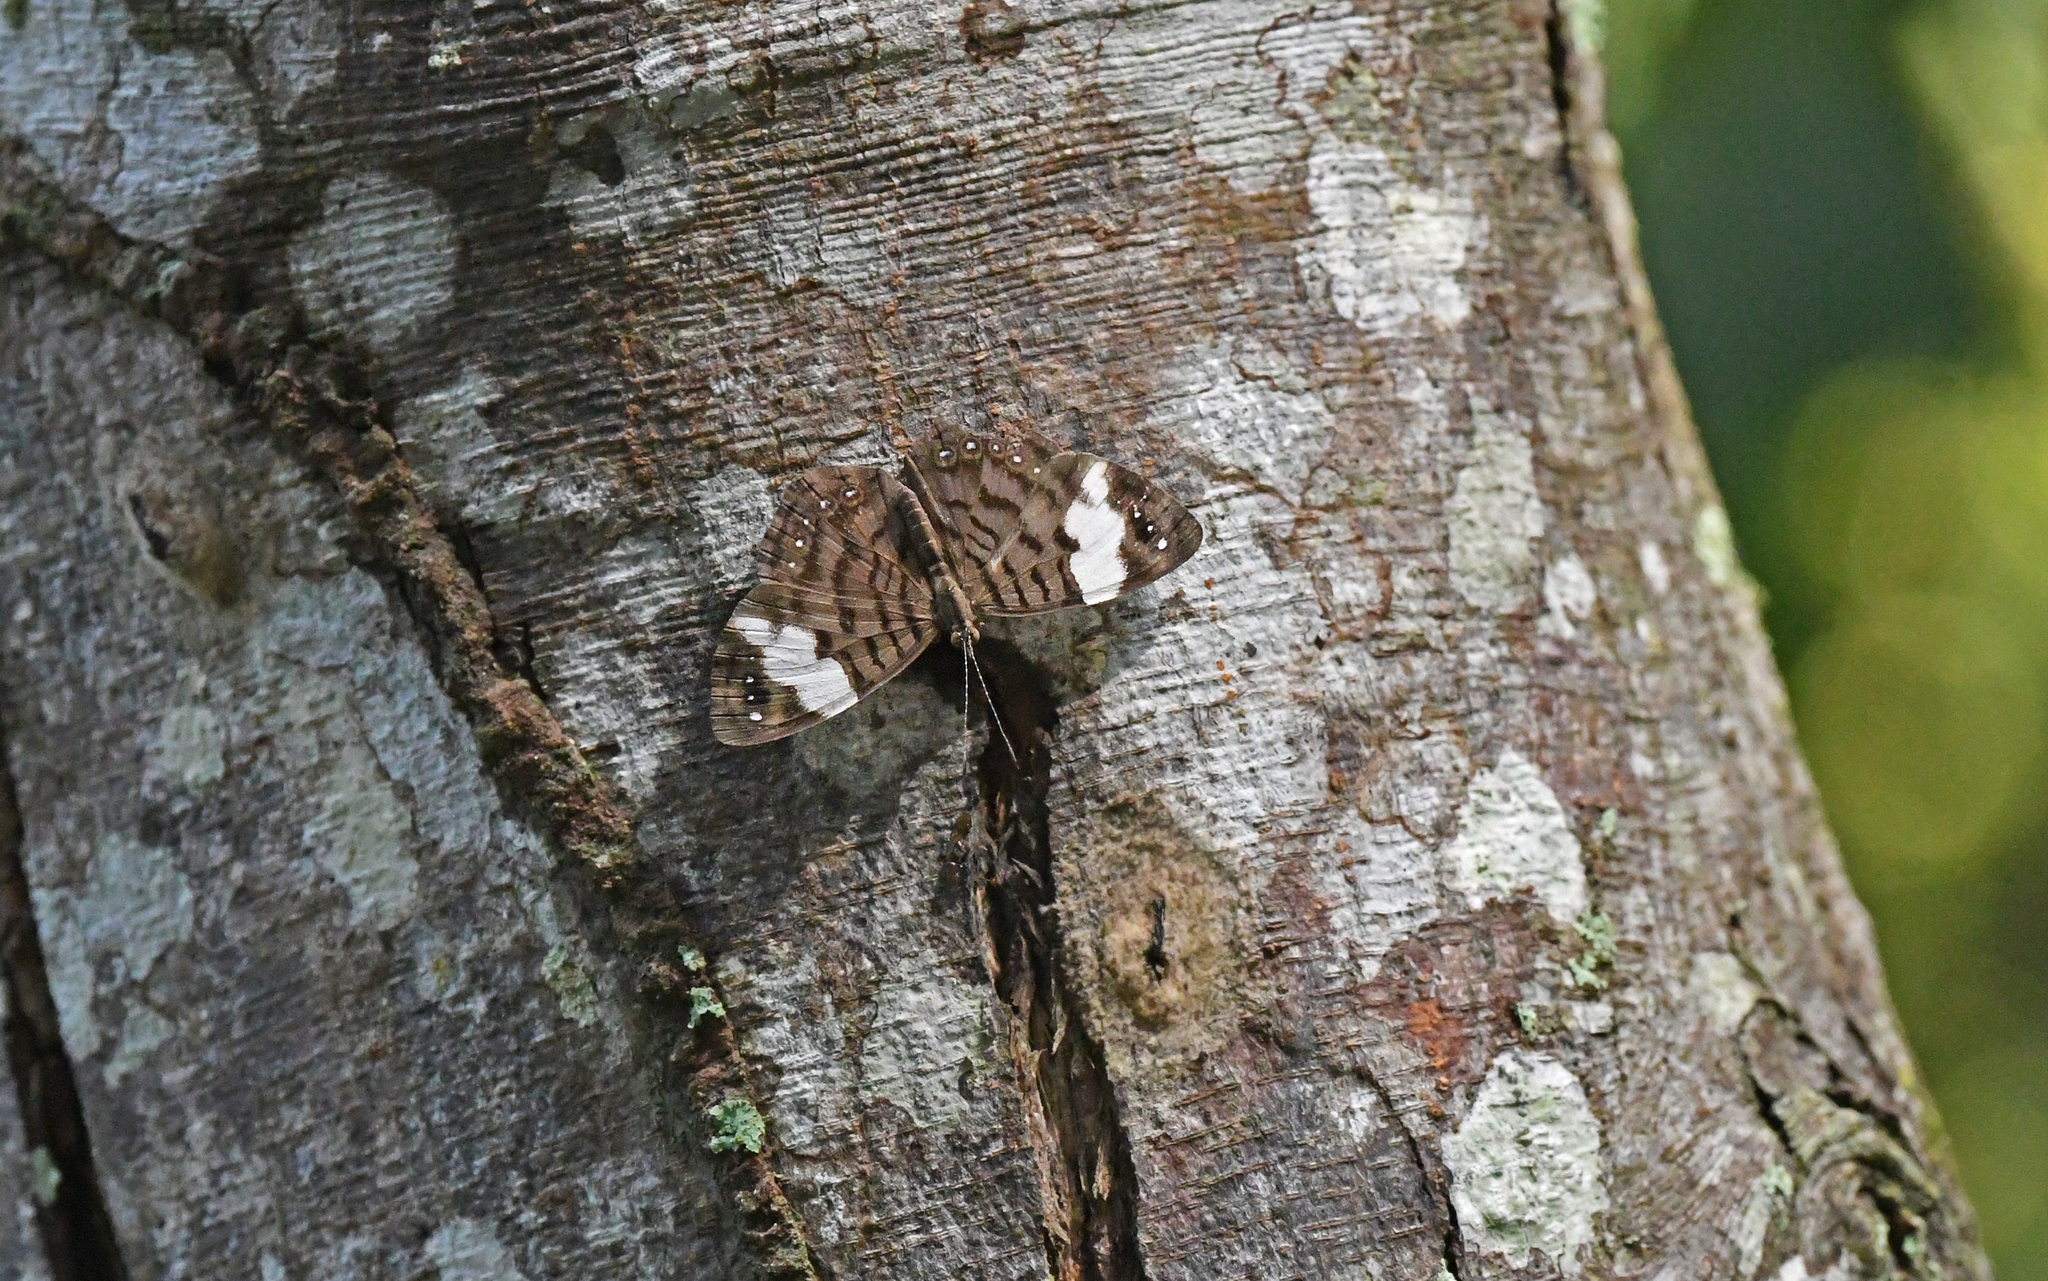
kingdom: Animalia
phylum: Arthropoda
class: Insecta
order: Lepidoptera
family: Nymphalidae
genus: Ectima
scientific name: Ectima thecla
